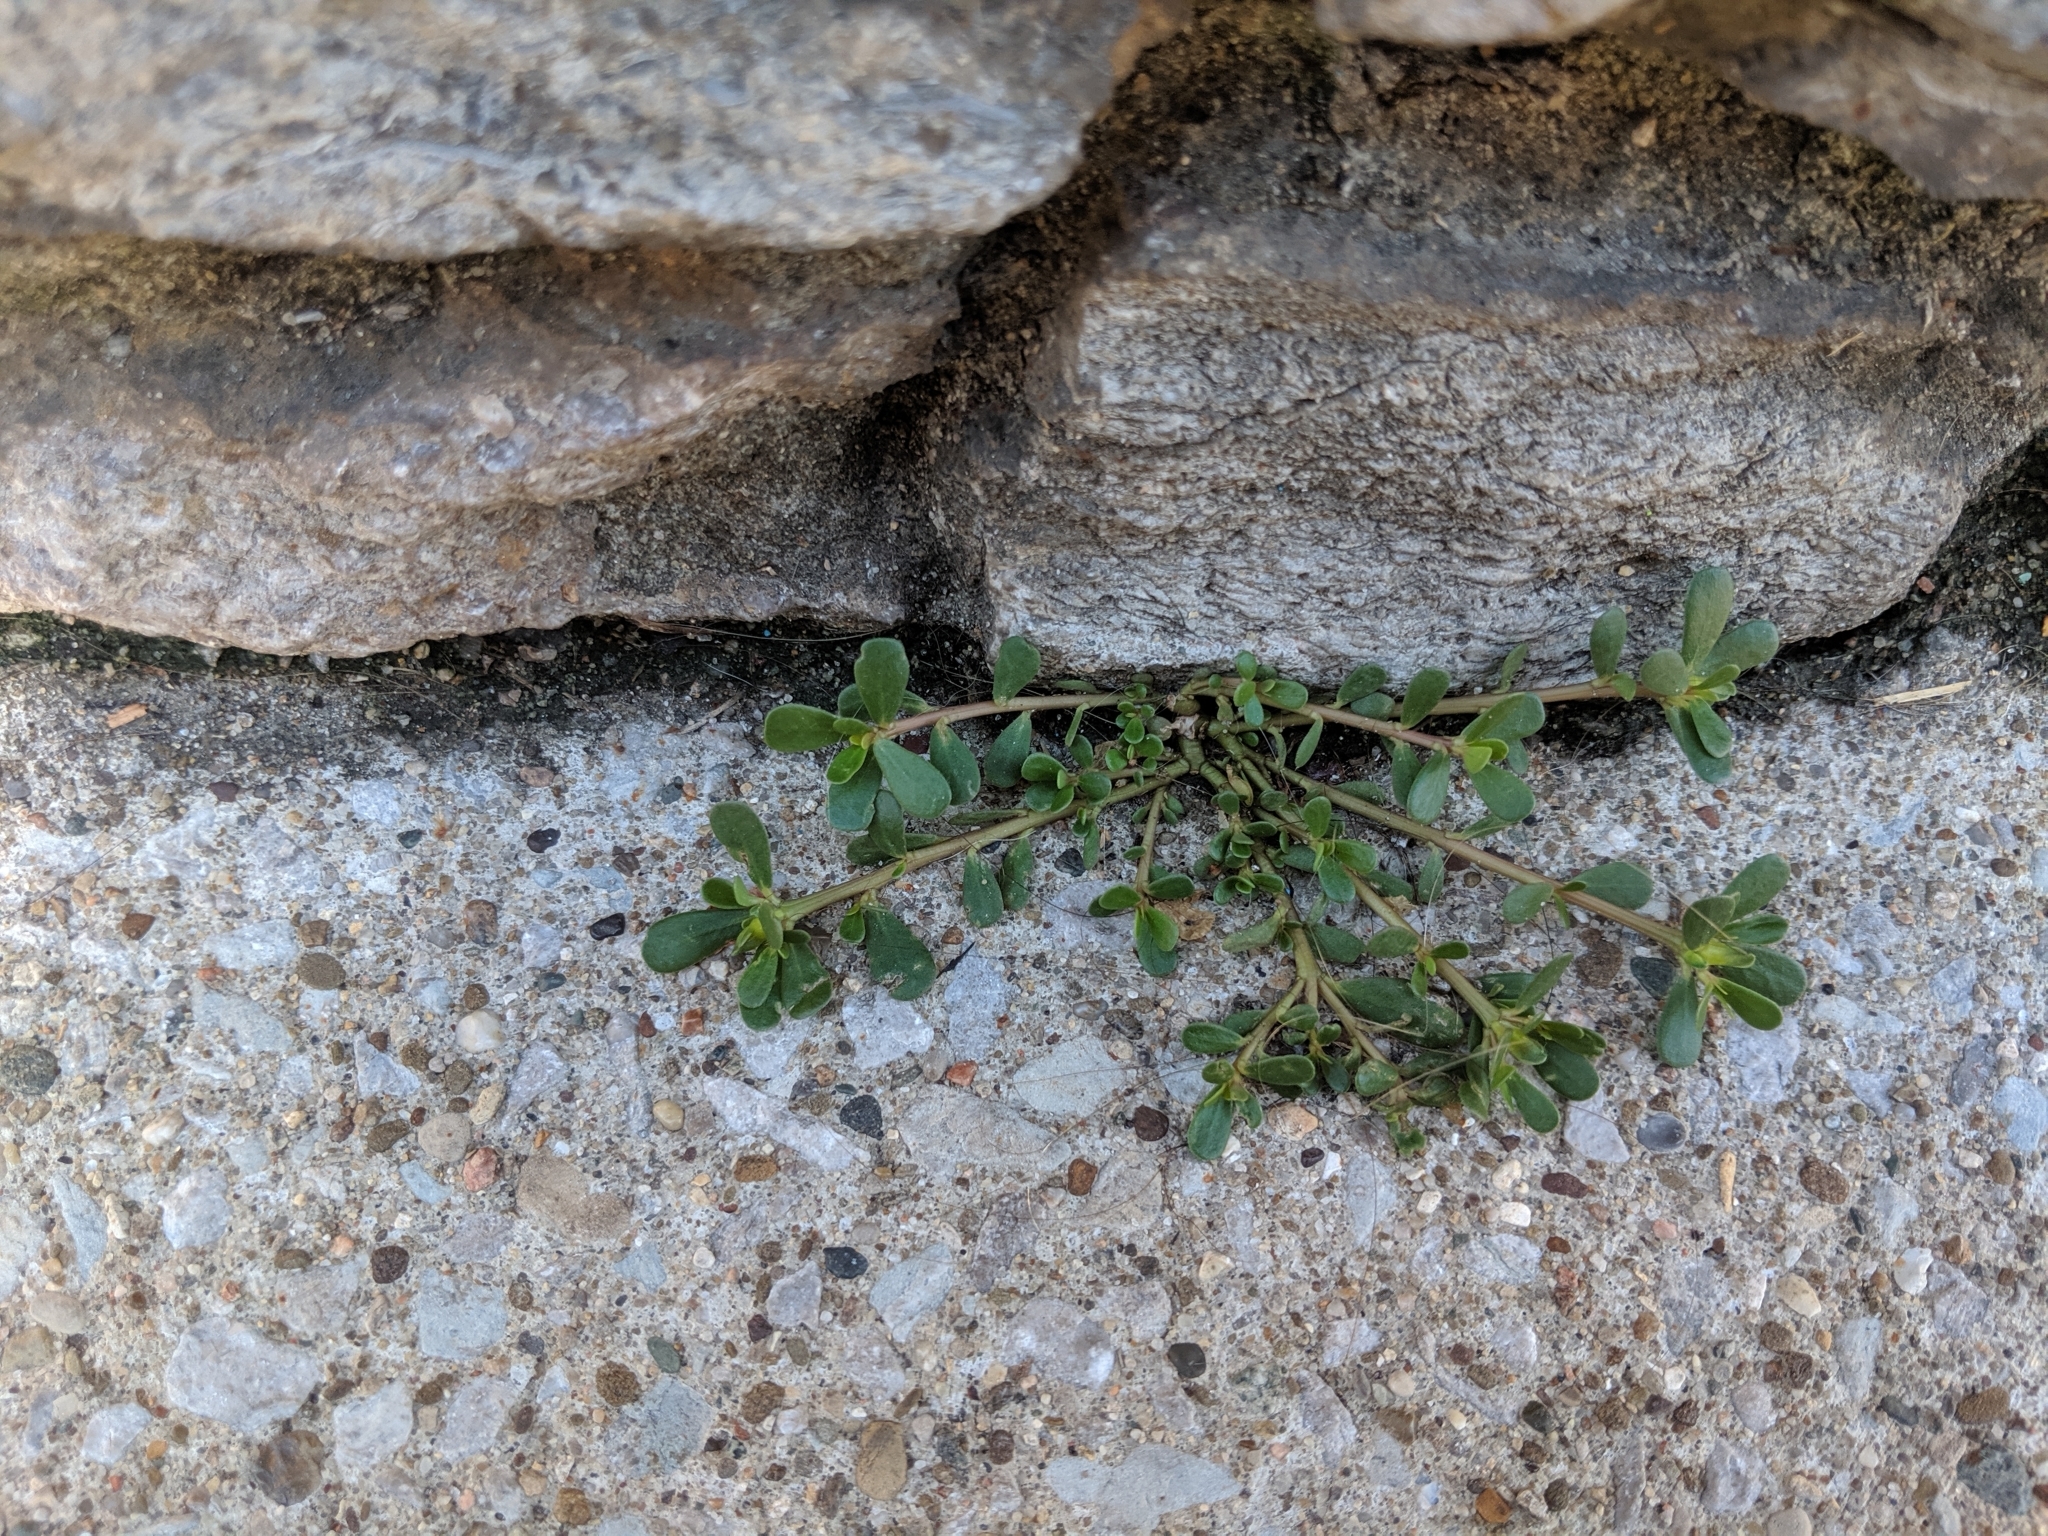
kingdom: Plantae
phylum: Tracheophyta
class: Magnoliopsida
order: Caryophyllales
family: Portulacaceae
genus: Portulaca
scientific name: Portulaca oleracea
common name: Common purslane
